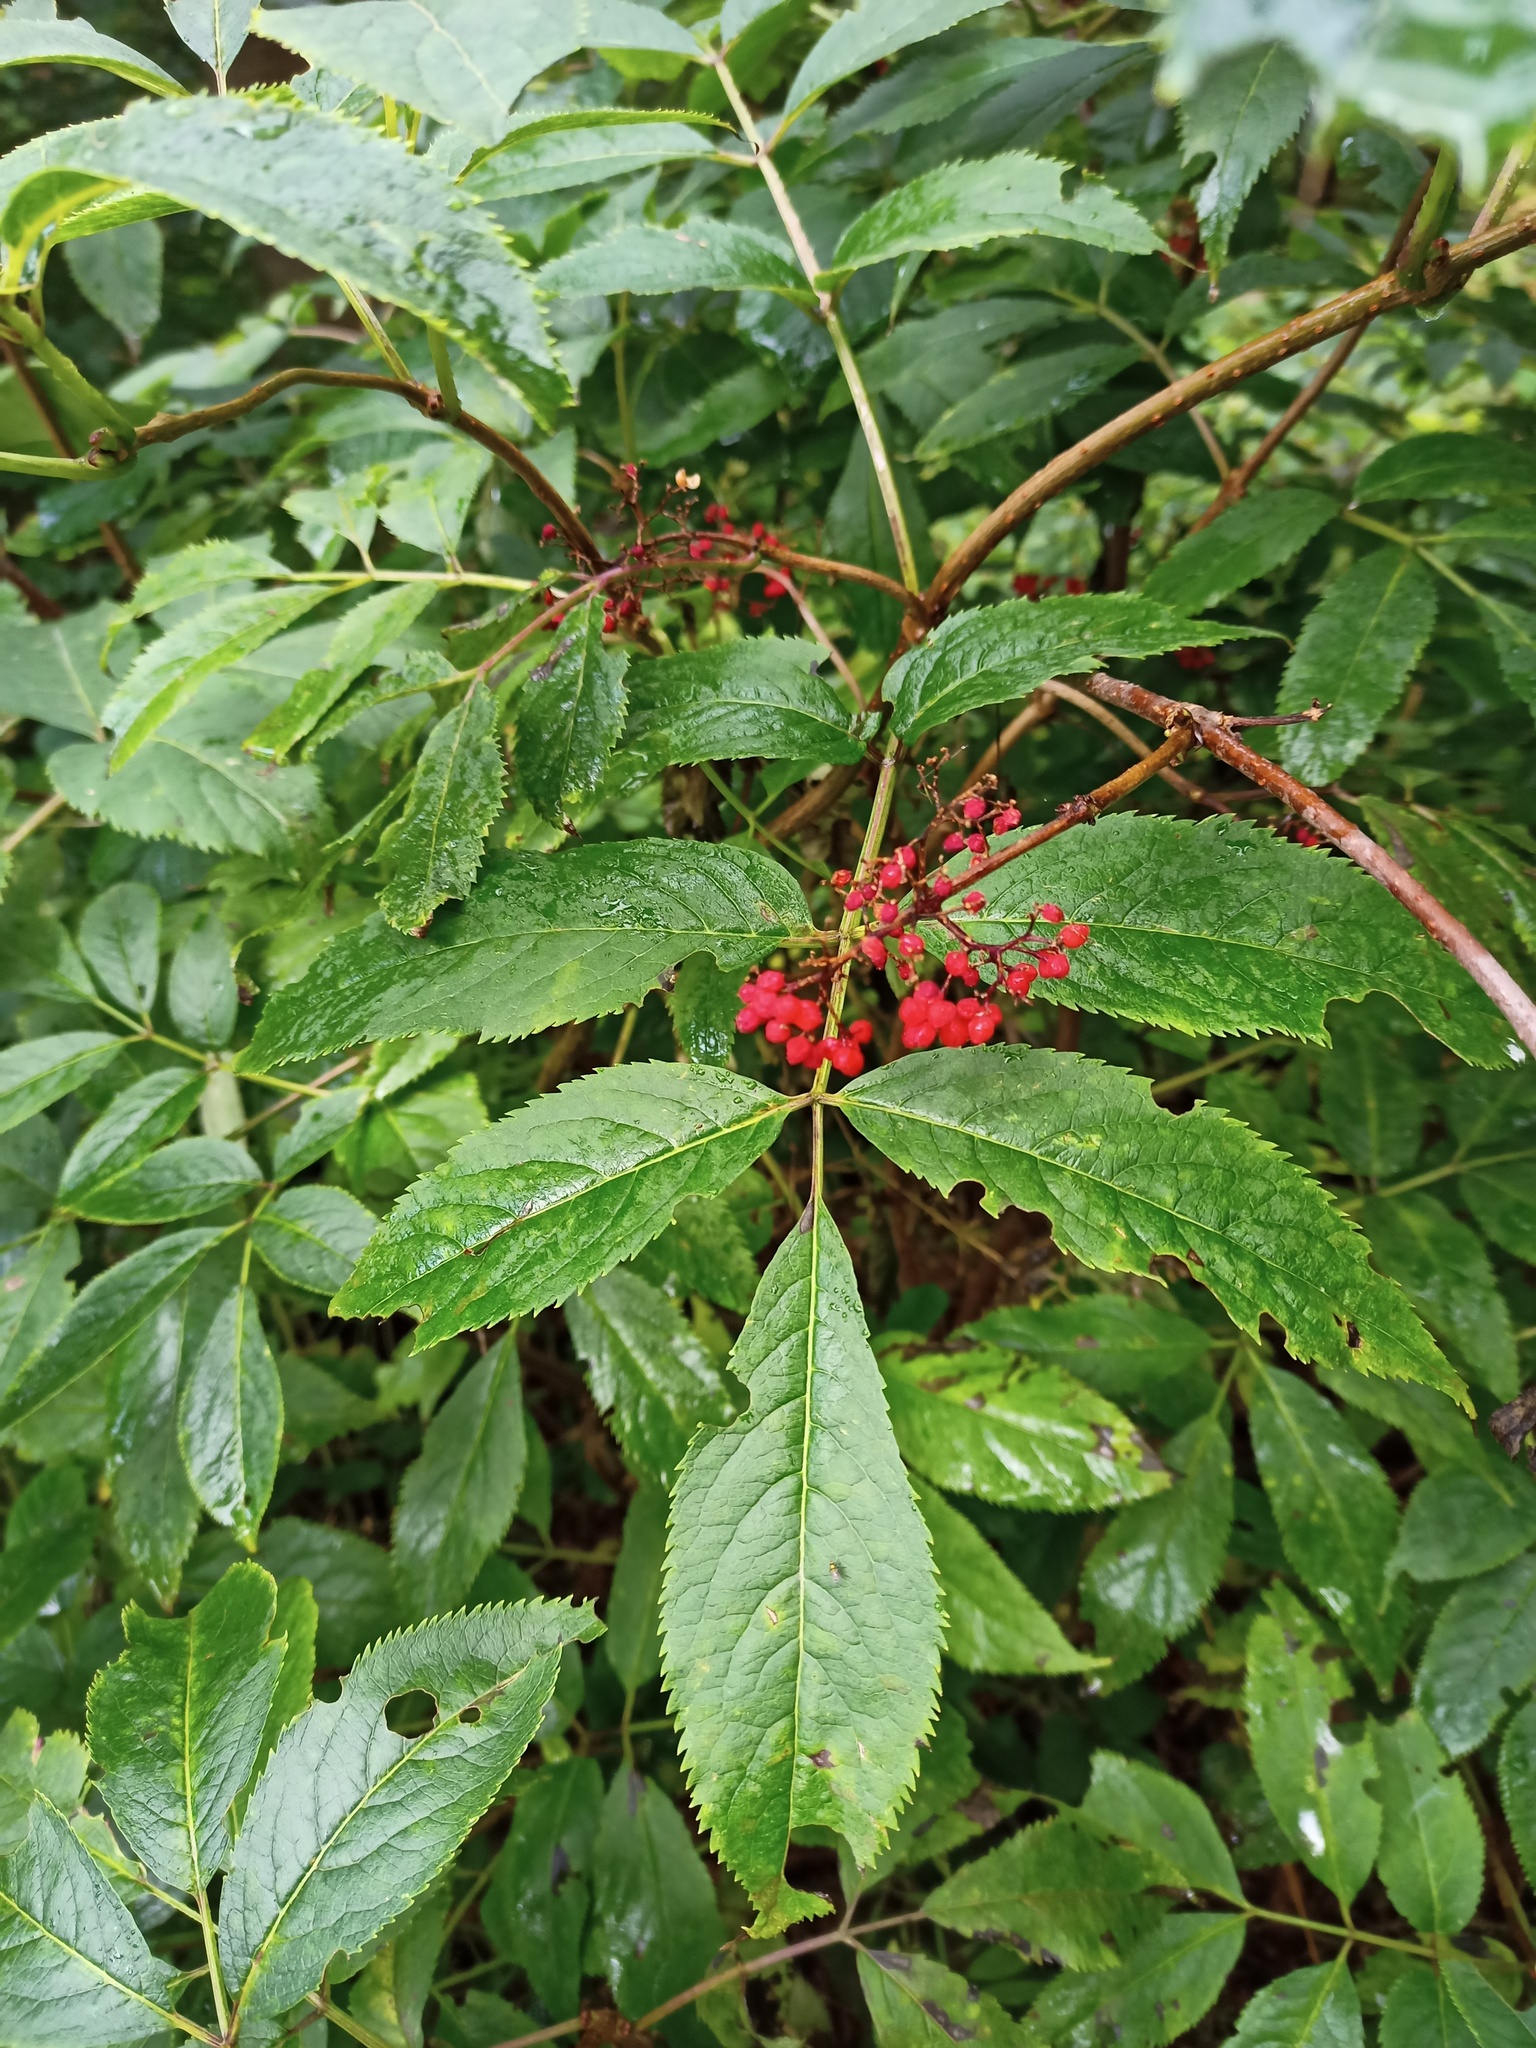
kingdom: Plantae
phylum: Tracheophyta
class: Magnoliopsida
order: Dipsacales
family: Viburnaceae
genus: Sambucus
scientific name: Sambucus racemosa
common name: Red-berried elder
